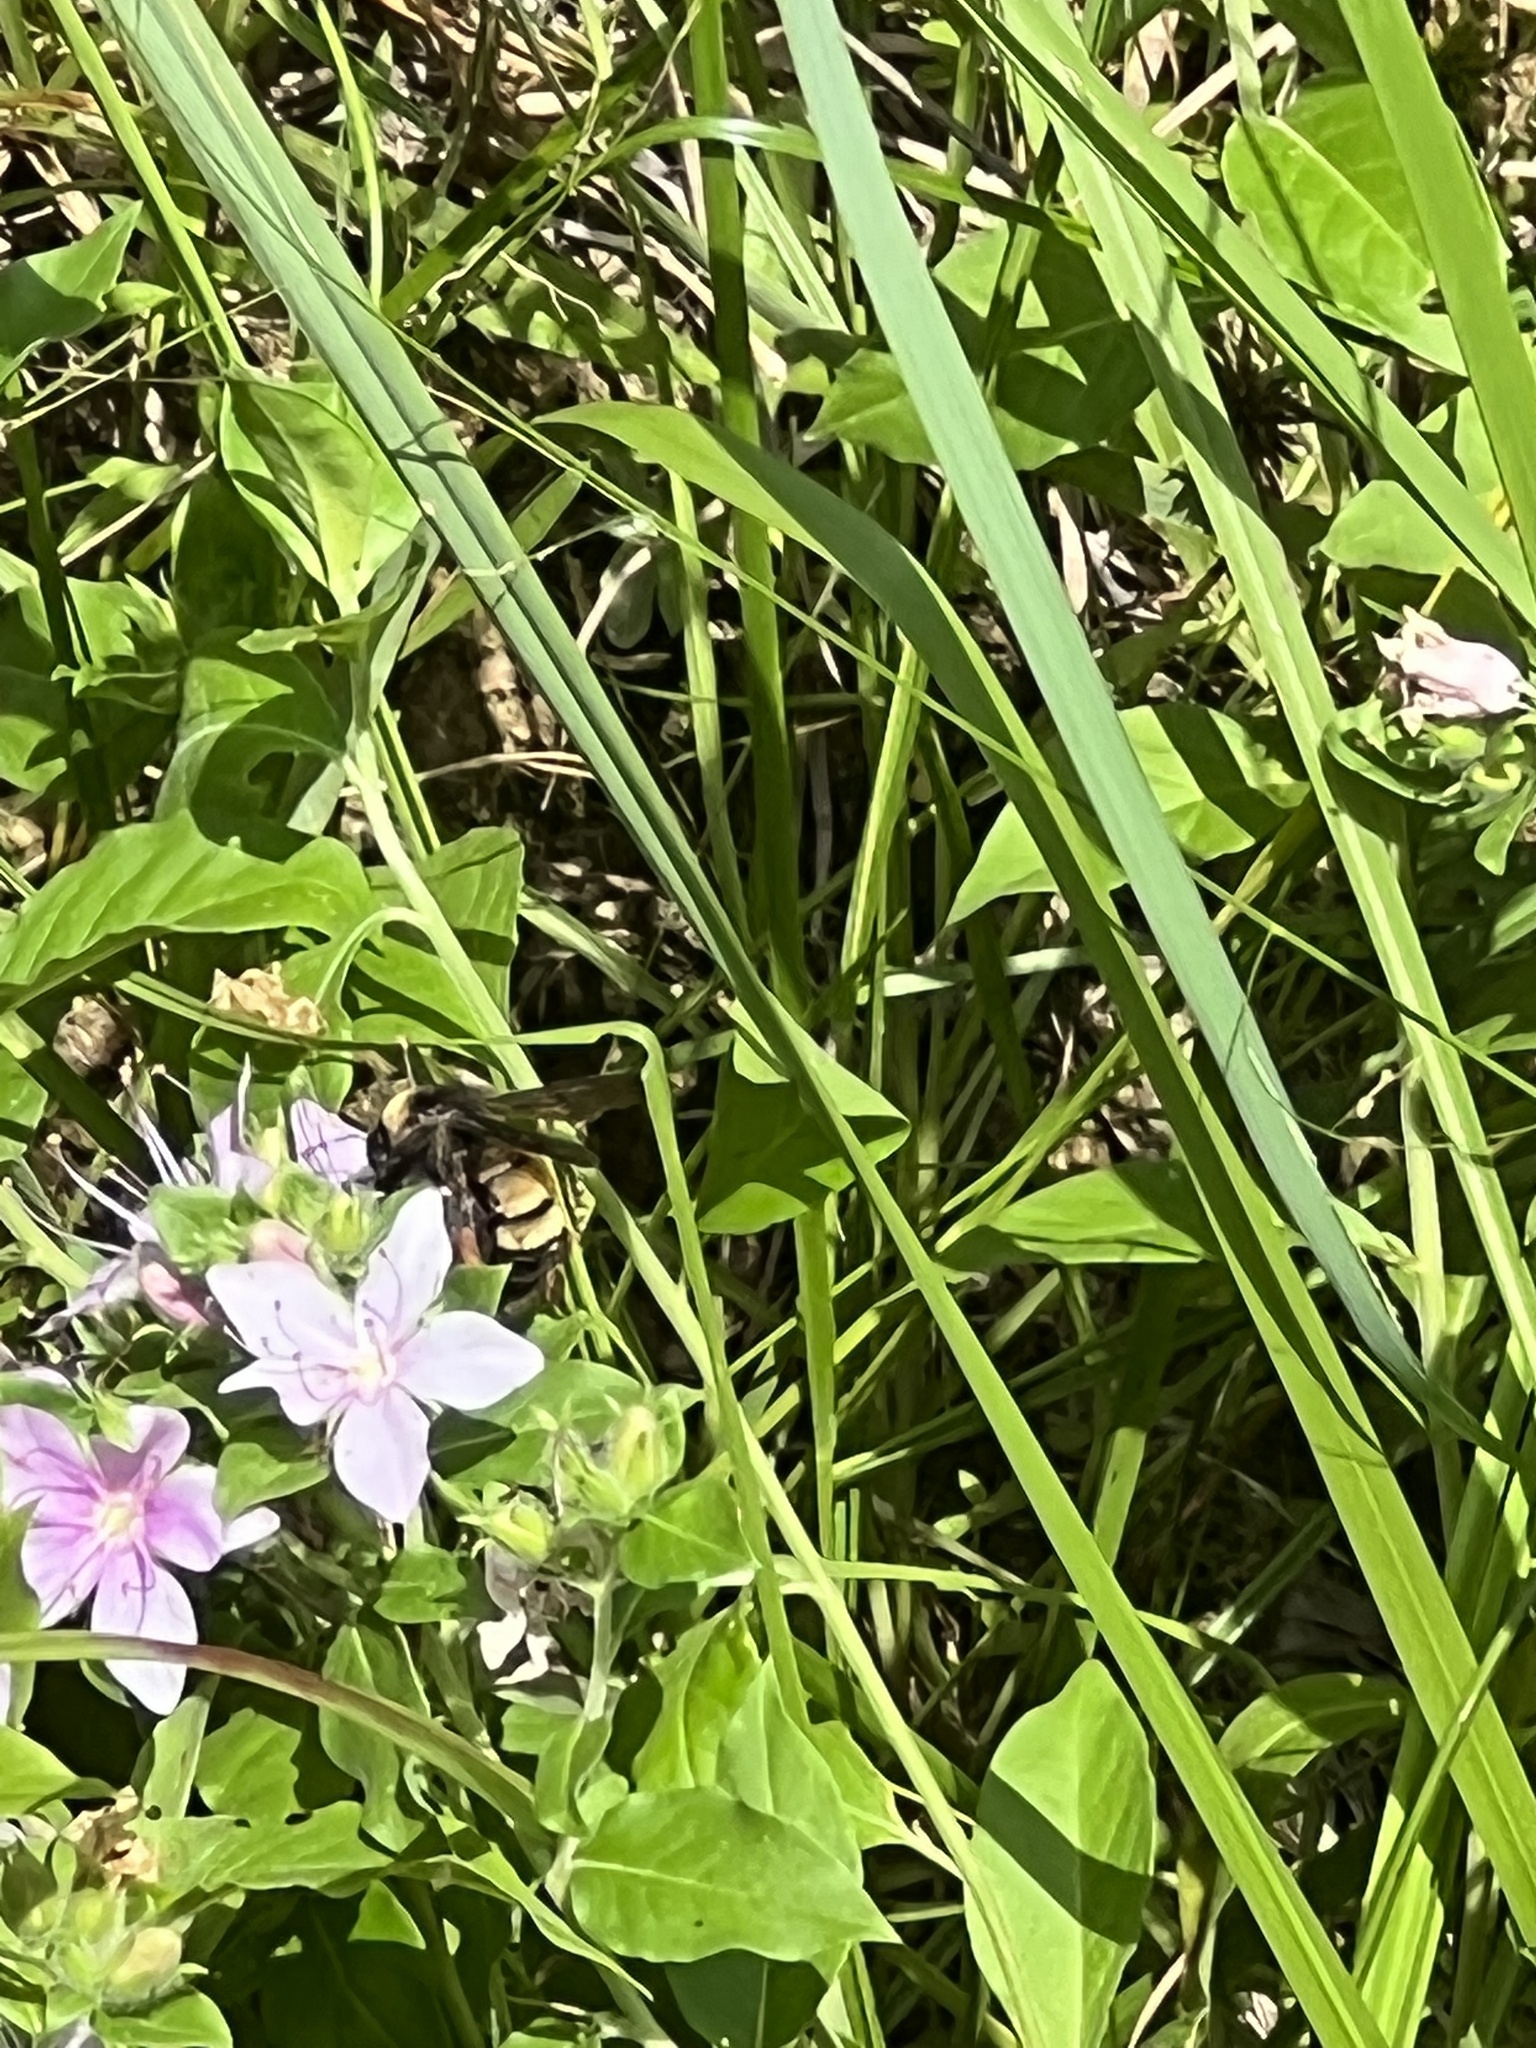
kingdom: Animalia
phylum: Arthropoda
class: Insecta
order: Hymenoptera
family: Apidae
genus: Bombus
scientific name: Bombus pensylvanicus
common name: Bumble bee
